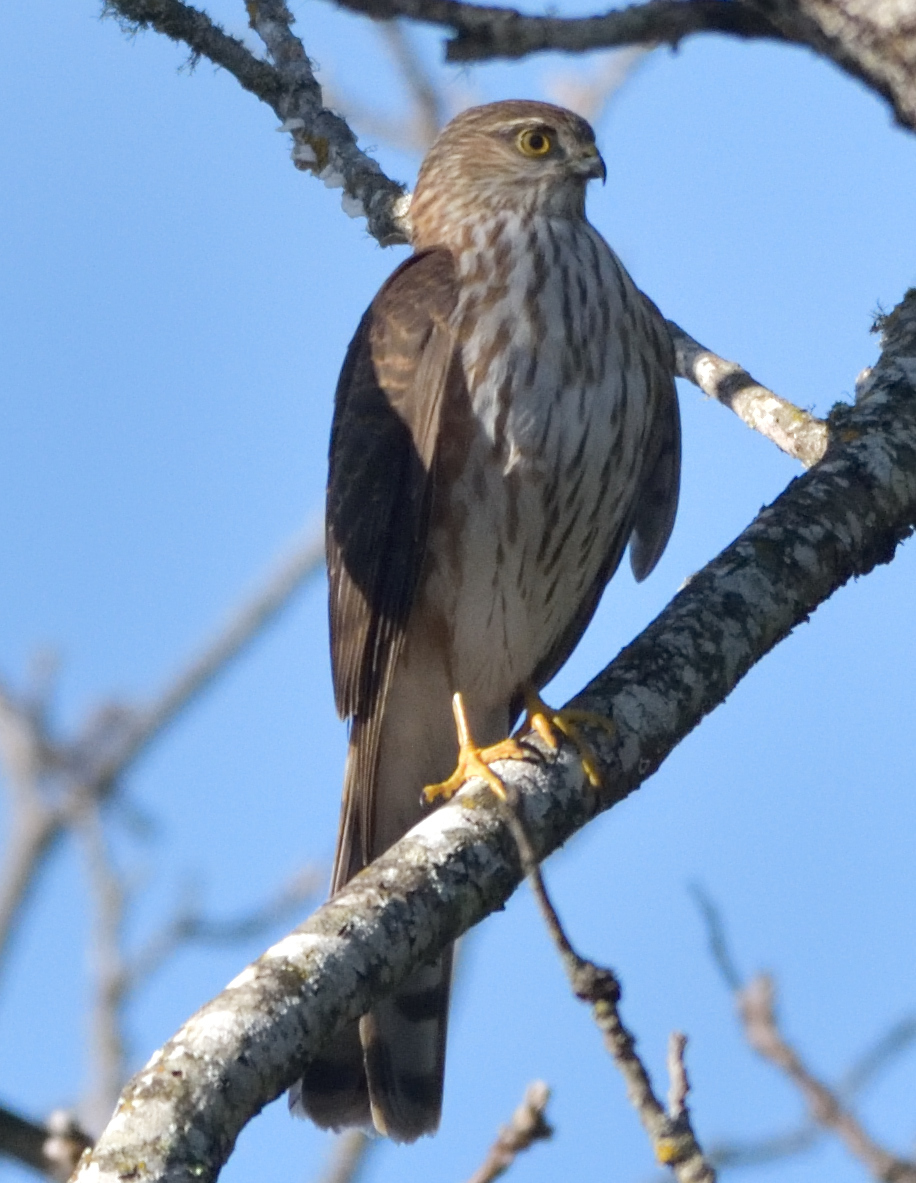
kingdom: Animalia
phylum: Chordata
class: Aves
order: Accipitriformes
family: Accipitridae
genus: Accipiter
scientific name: Accipiter striatus
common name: Sharp-shinned hawk
